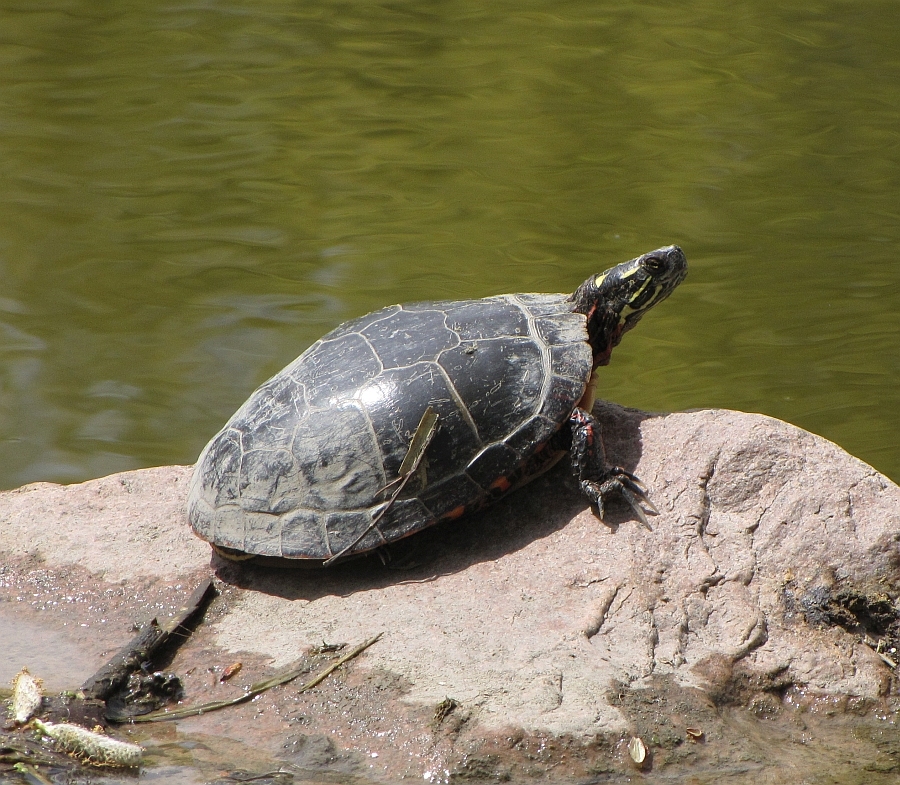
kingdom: Animalia
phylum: Chordata
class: Testudines
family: Emydidae
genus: Chrysemys
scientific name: Chrysemys picta
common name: Painted turtle
